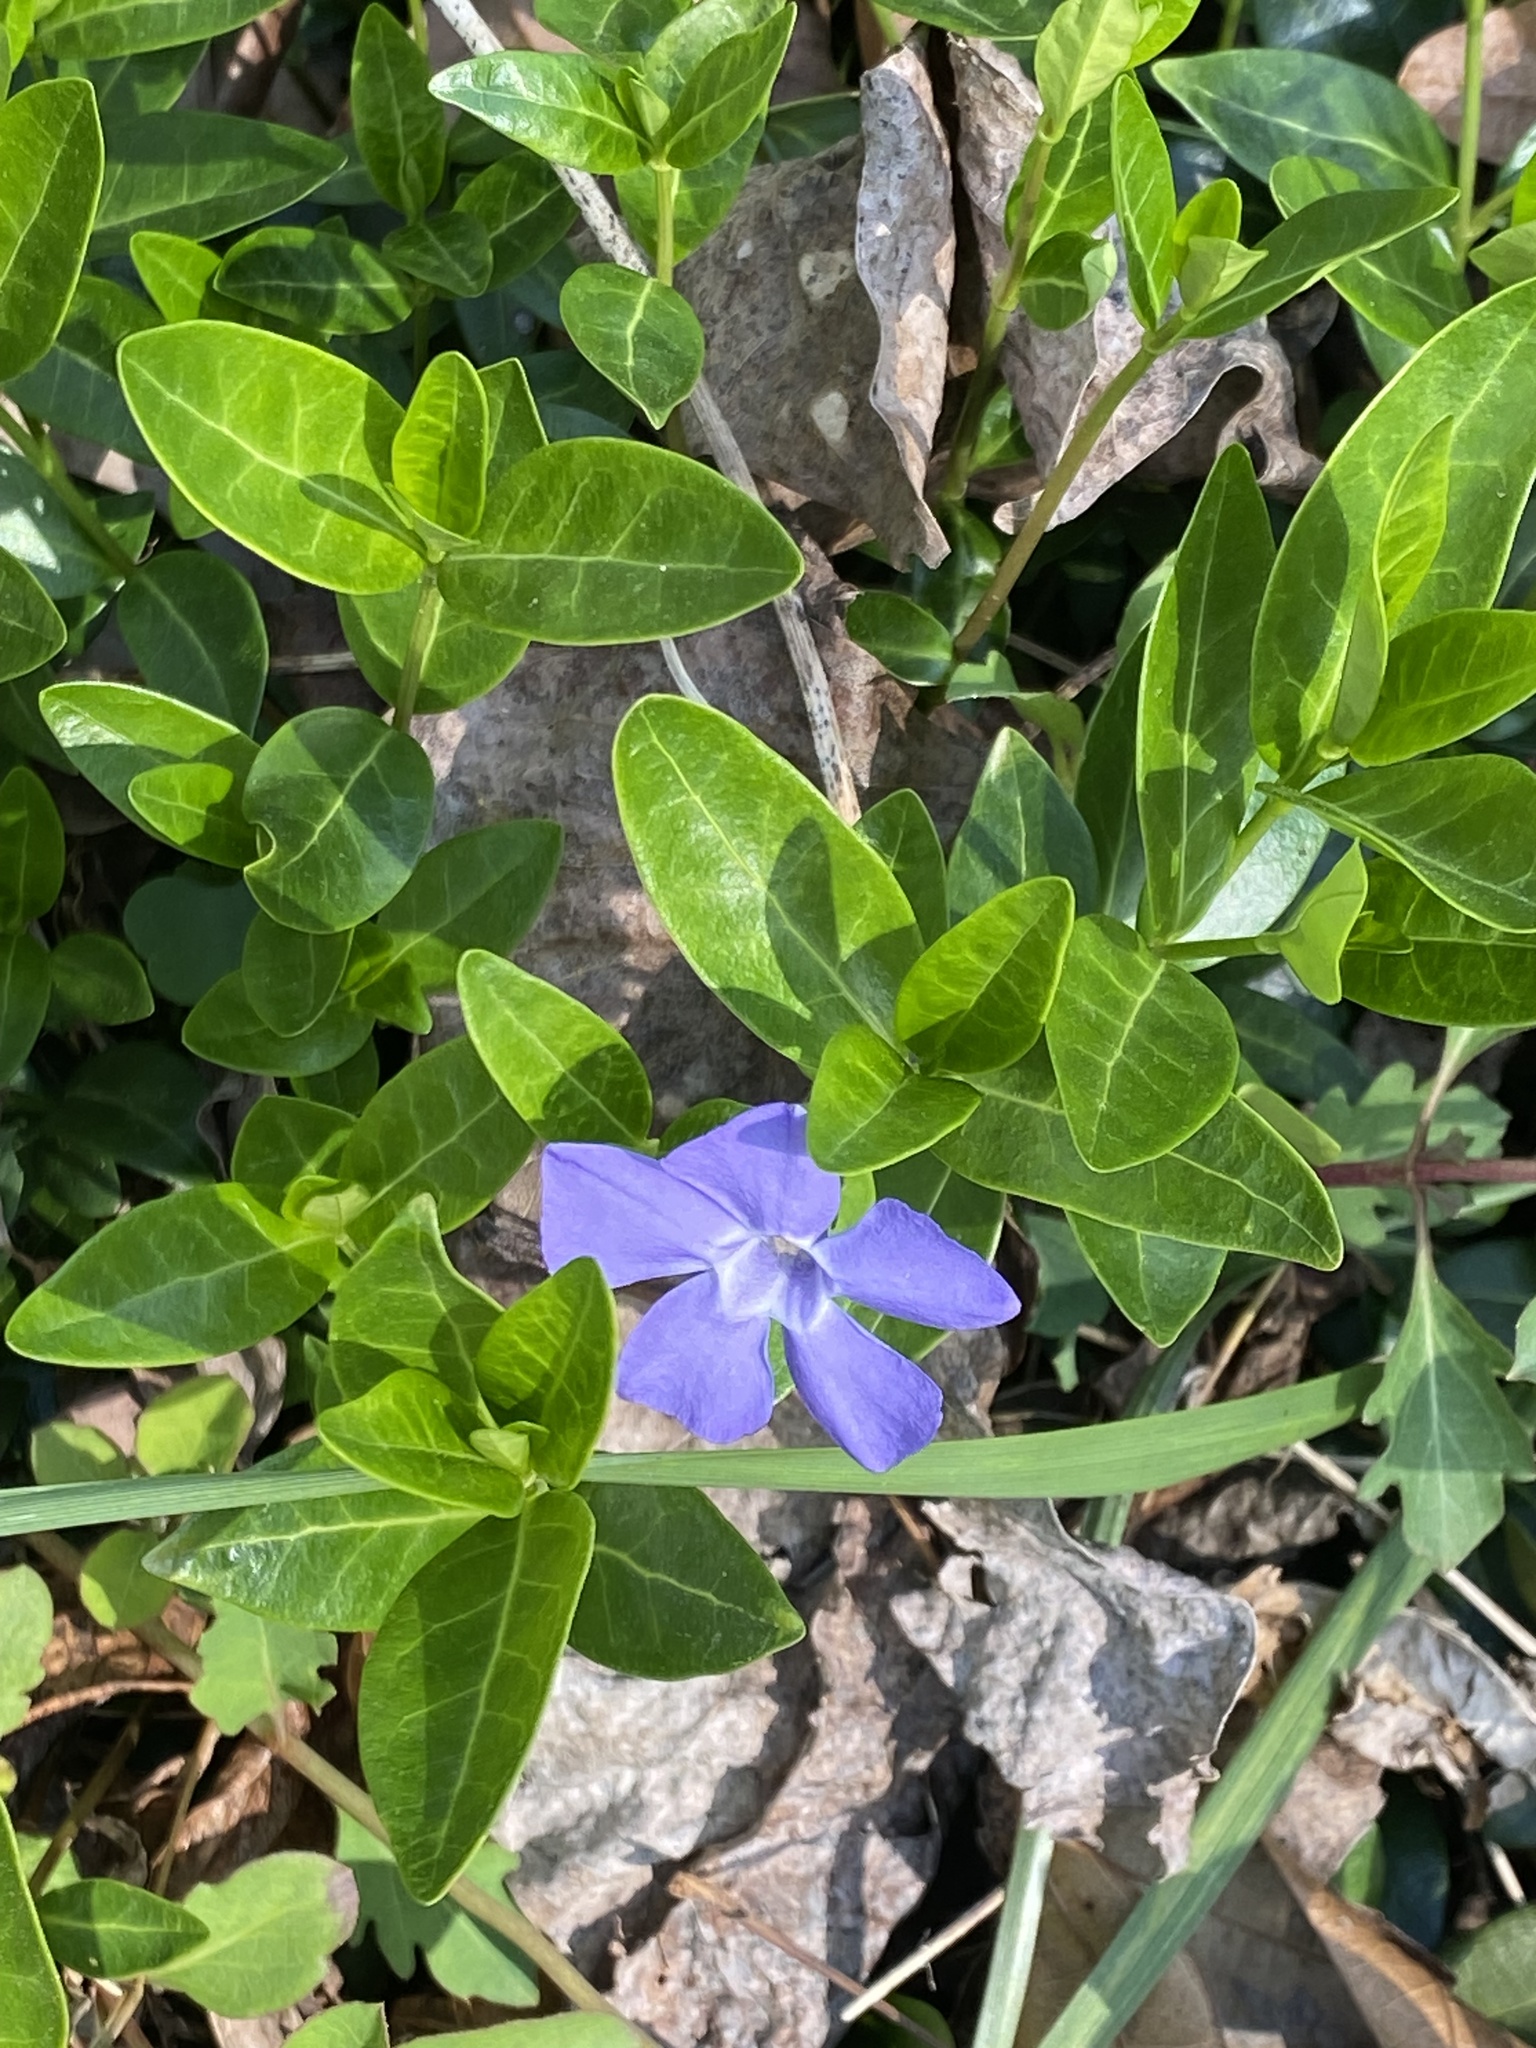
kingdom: Plantae
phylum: Tracheophyta
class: Magnoliopsida
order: Gentianales
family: Apocynaceae
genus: Vinca
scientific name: Vinca minor
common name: Lesser periwinkle
